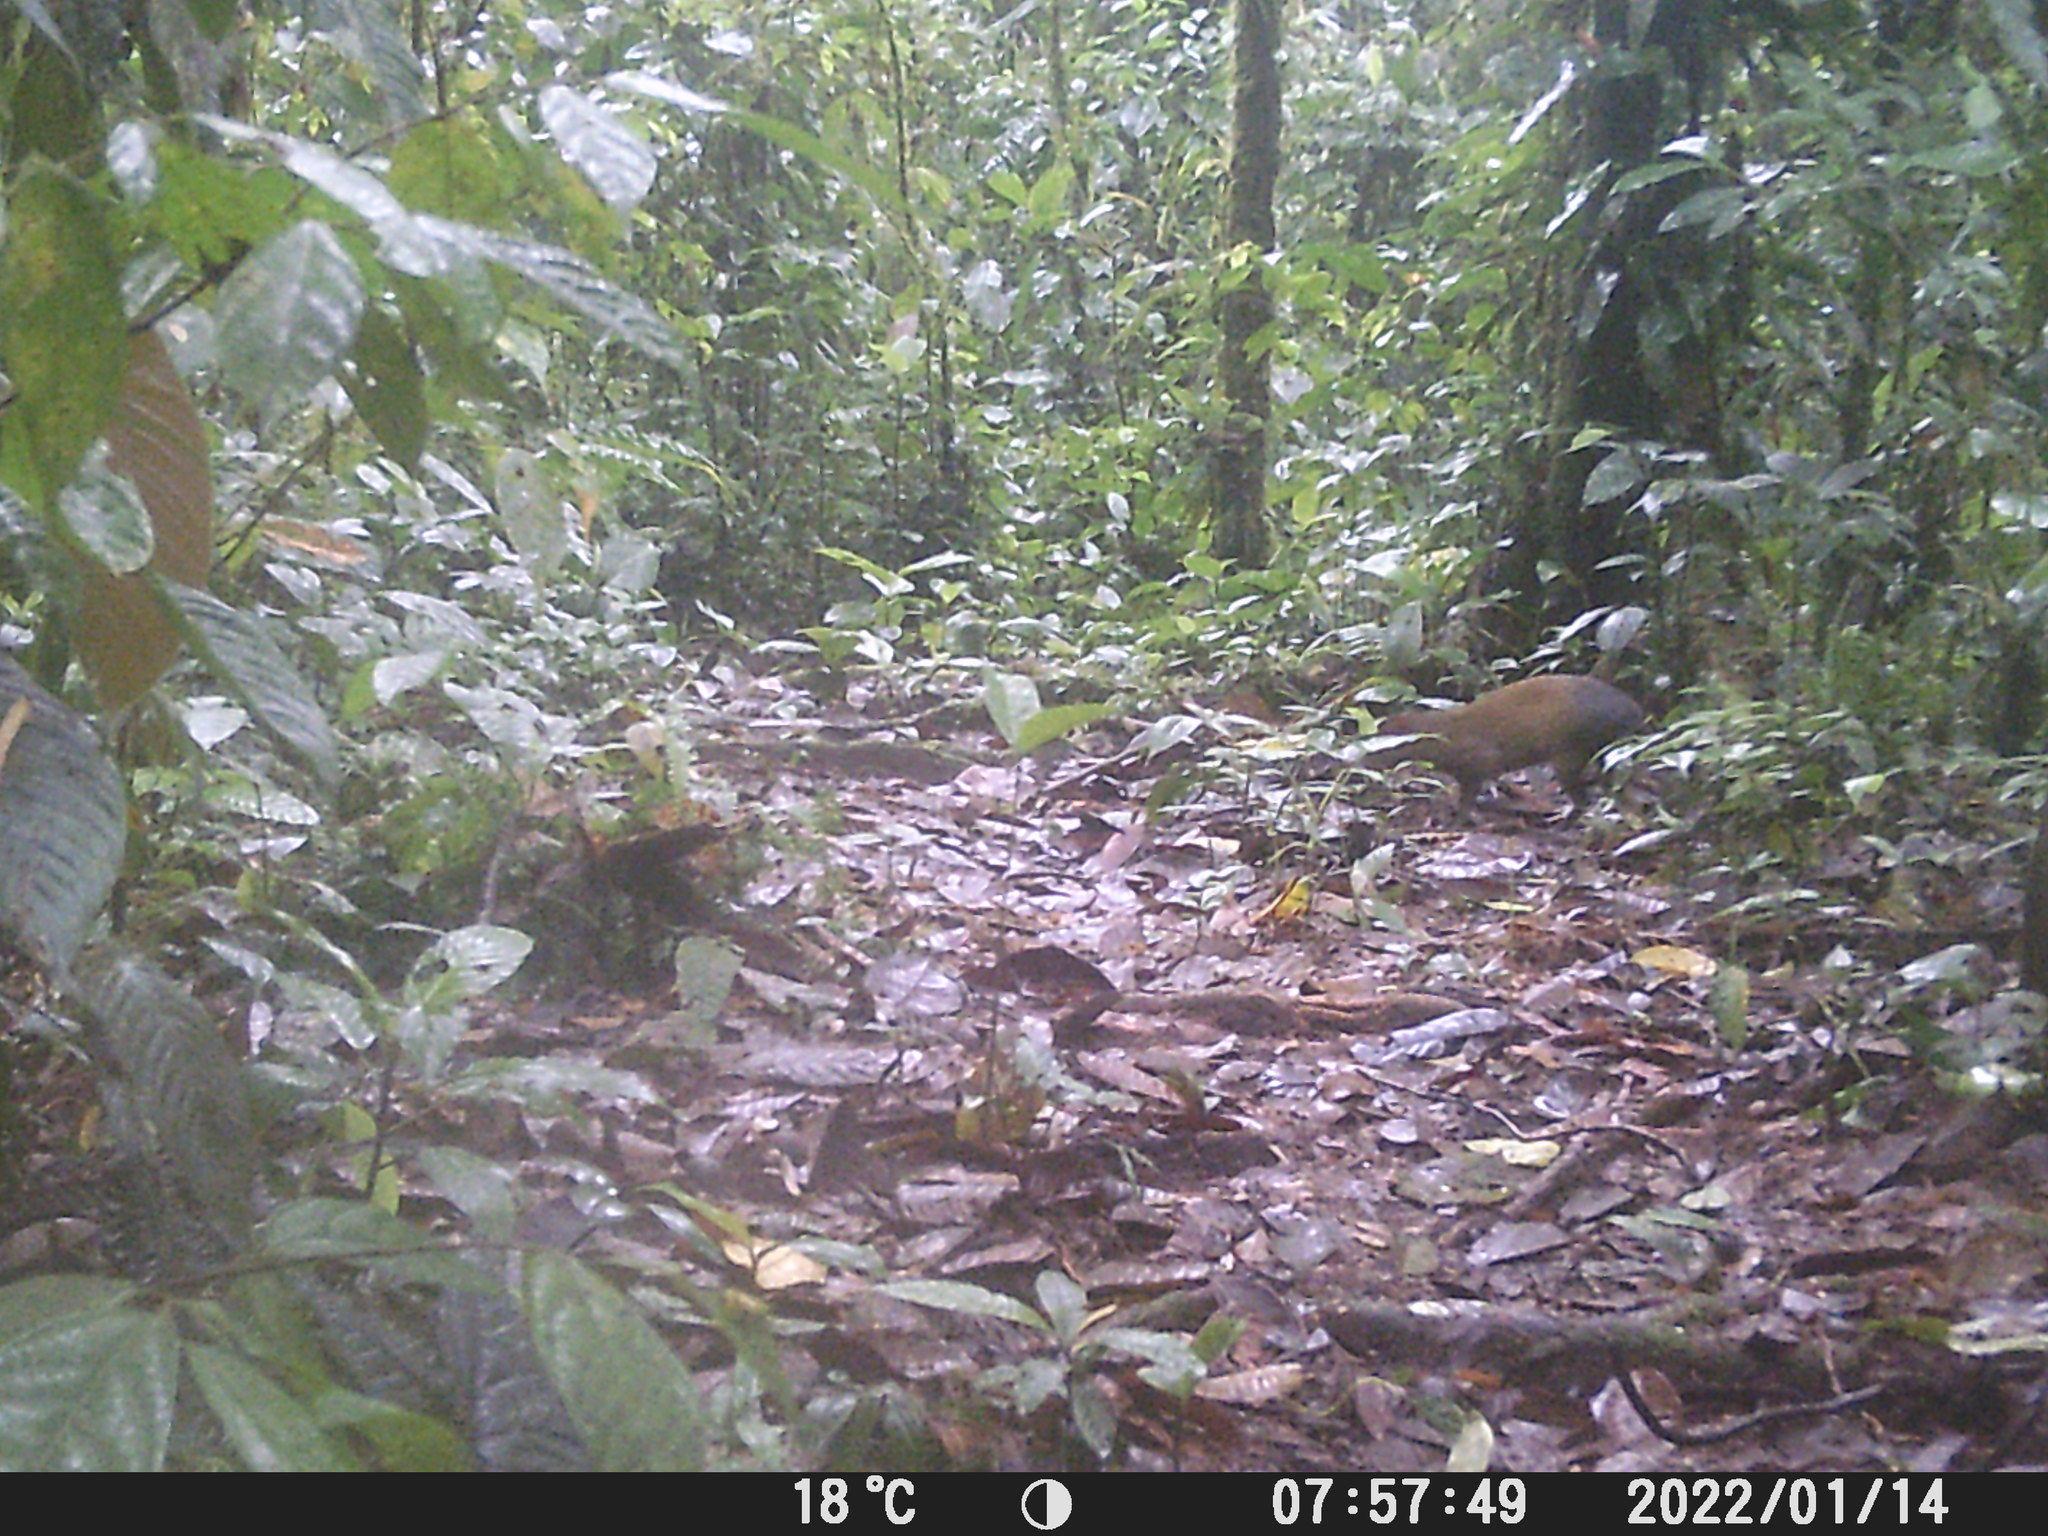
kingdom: Animalia
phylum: Chordata
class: Mammalia
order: Rodentia
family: Dasyproctidae
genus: Dasyprocta
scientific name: Dasyprocta punctata
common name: Central american agouti
